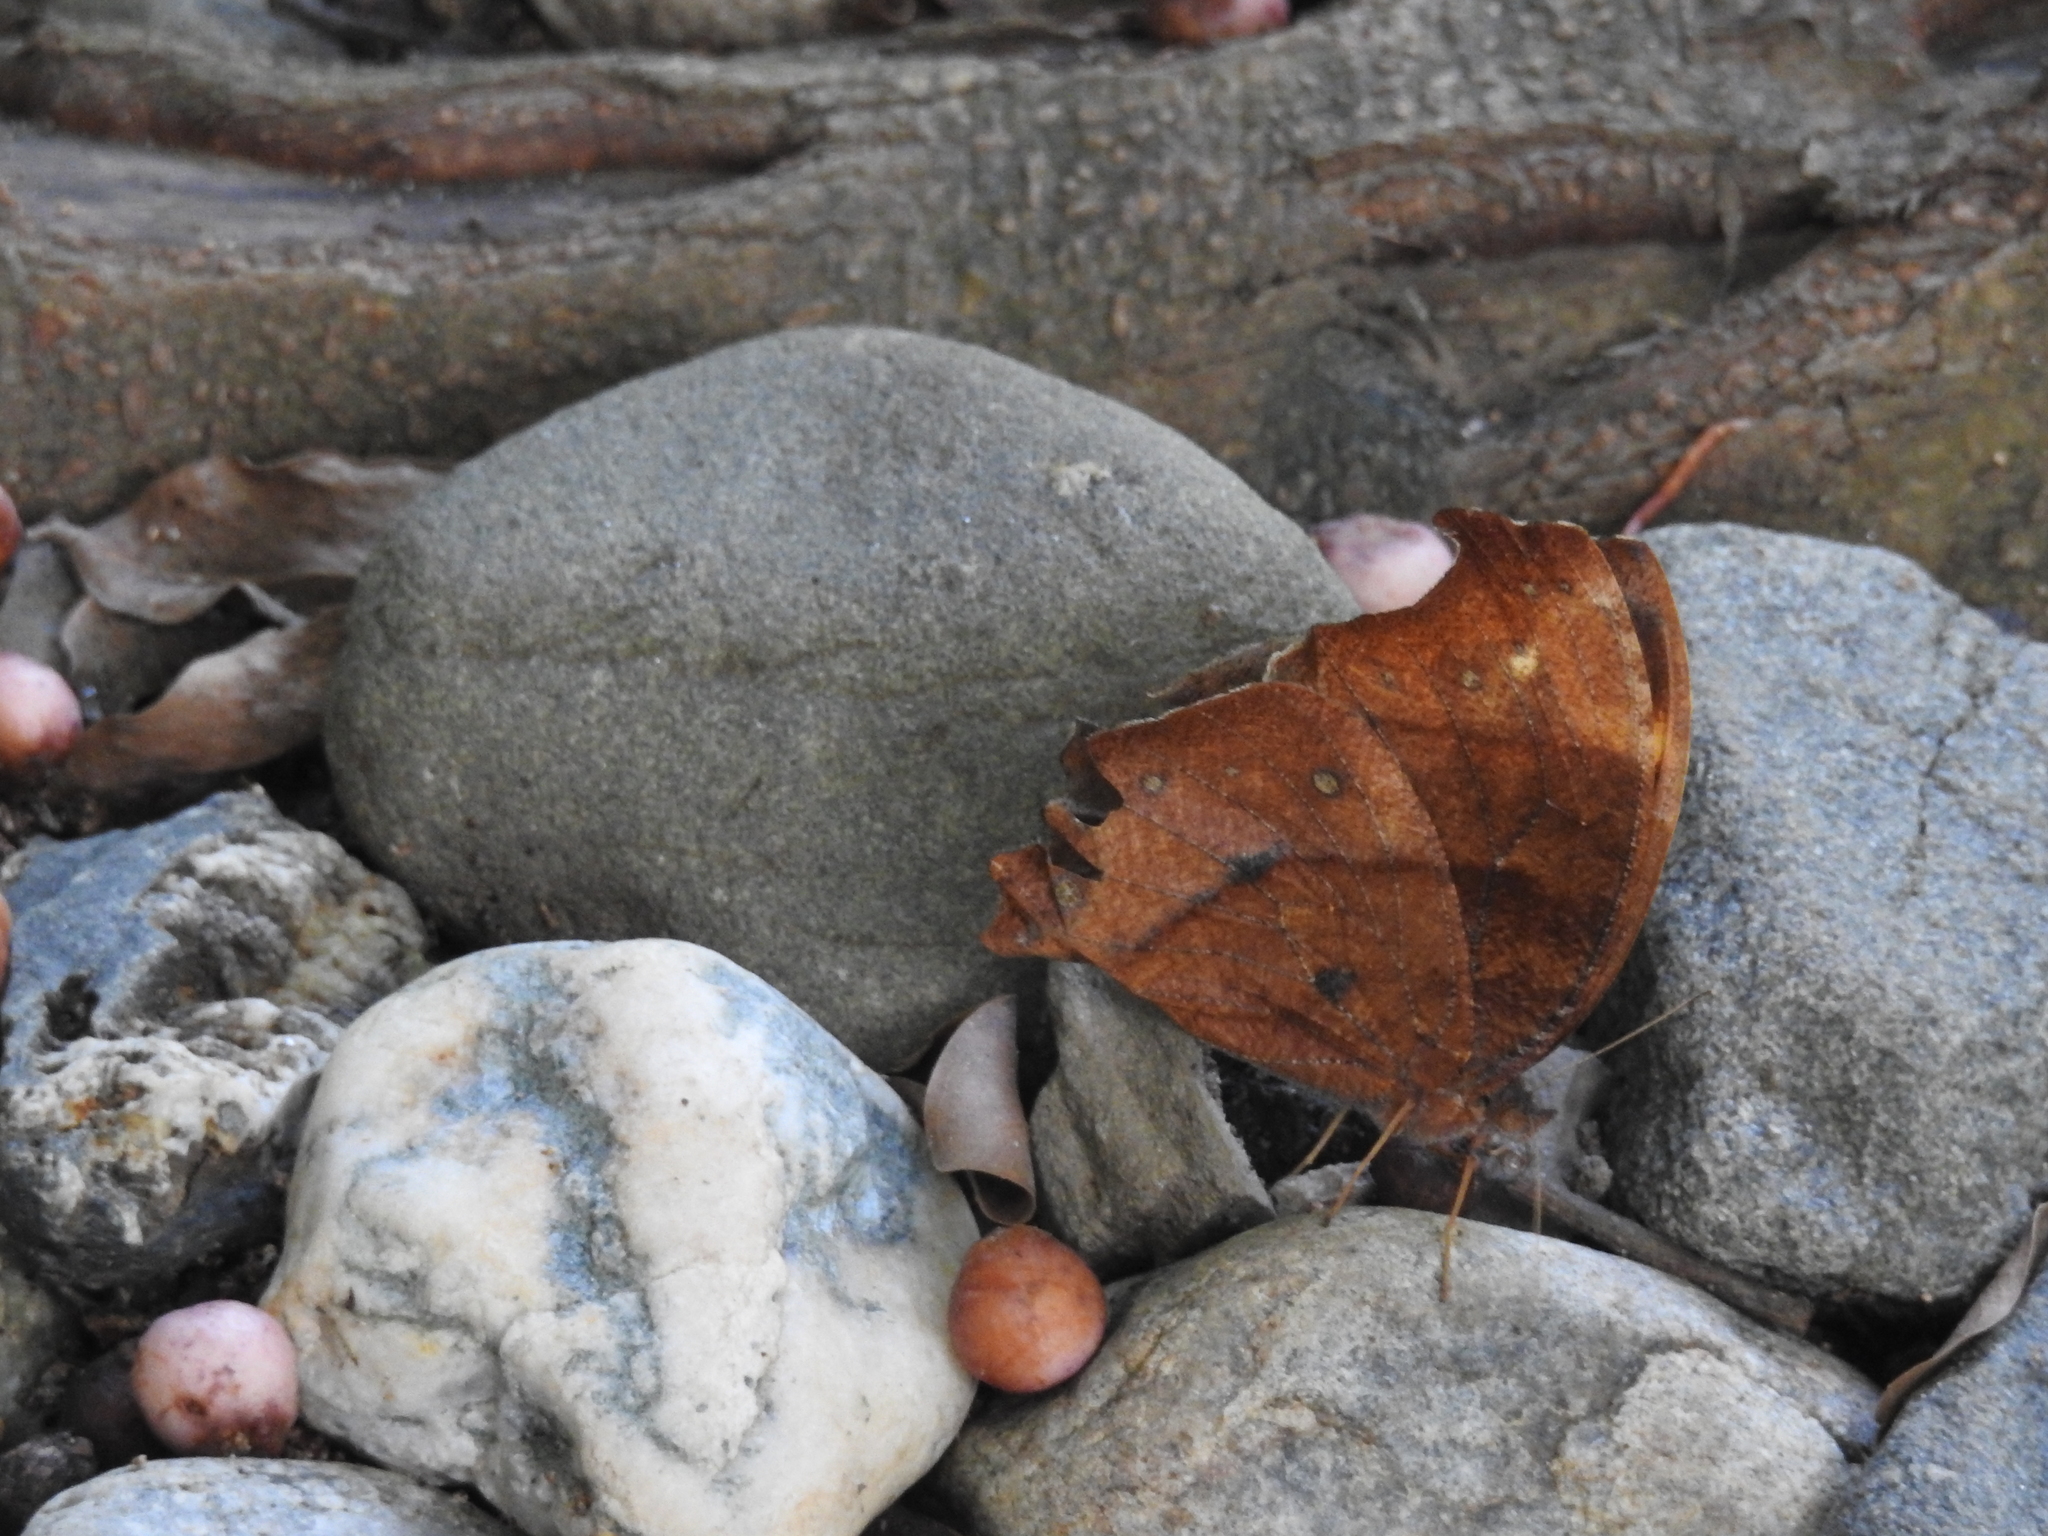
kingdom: Animalia
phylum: Arthropoda
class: Insecta
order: Lepidoptera
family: Nymphalidae
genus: Melanitis
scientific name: Melanitis phedima
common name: Dark evening brown
